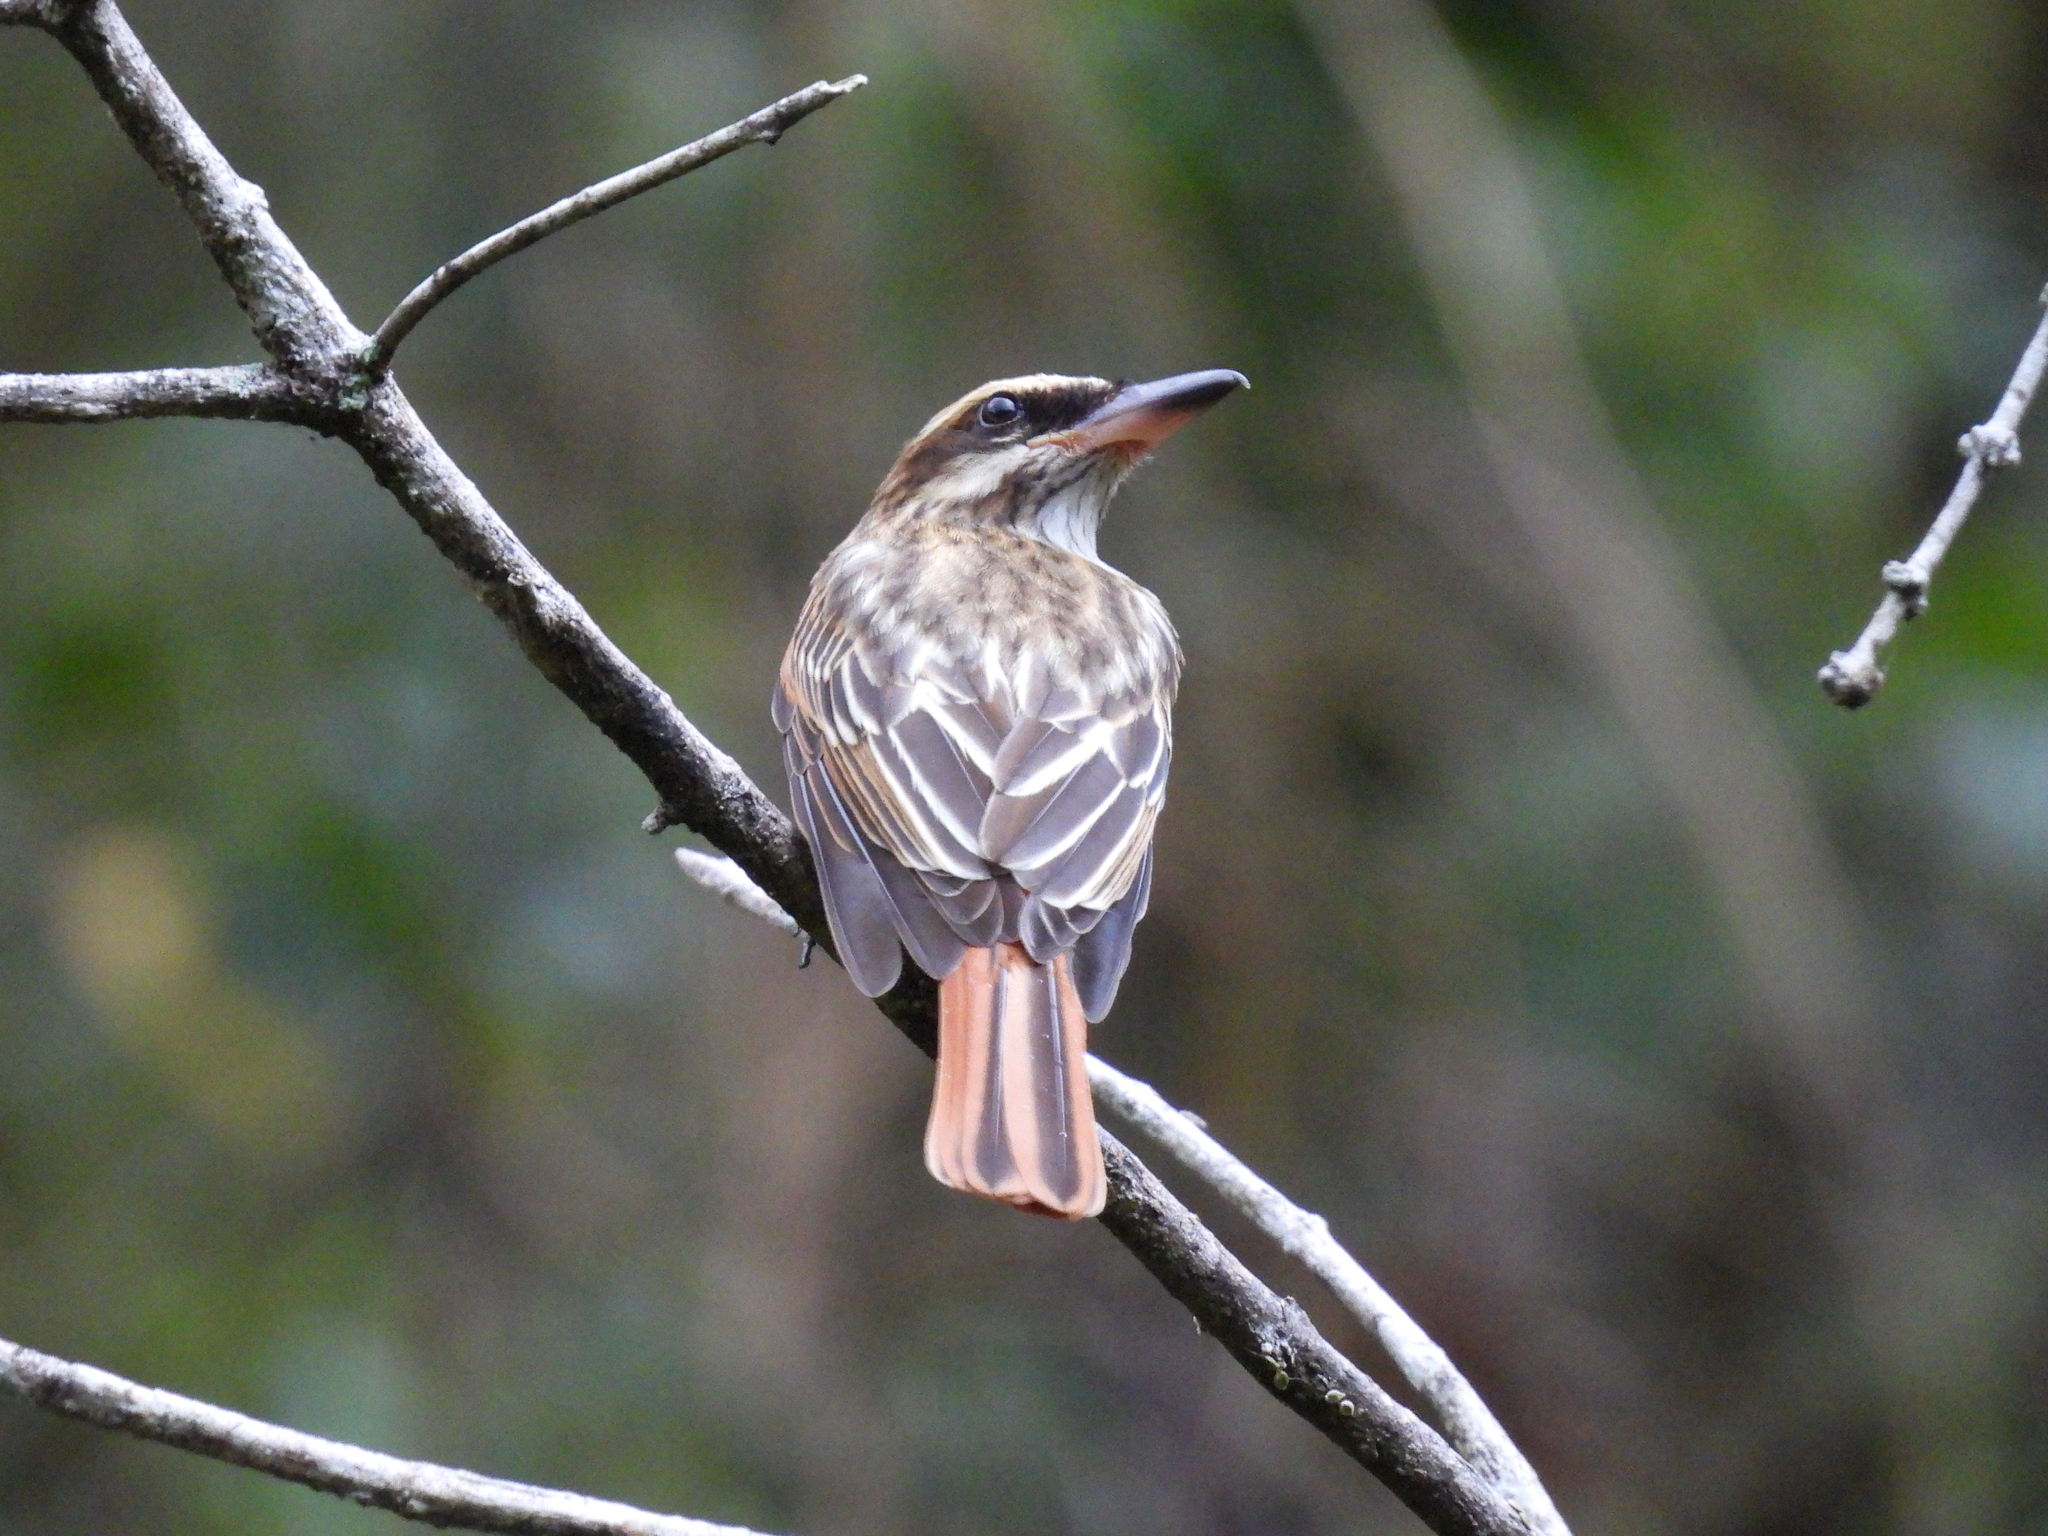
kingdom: Animalia
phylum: Chordata
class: Aves
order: Passeriformes
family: Tyrannidae
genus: Myiodynastes
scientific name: Myiodynastes maculatus
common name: Streaked flycatcher
